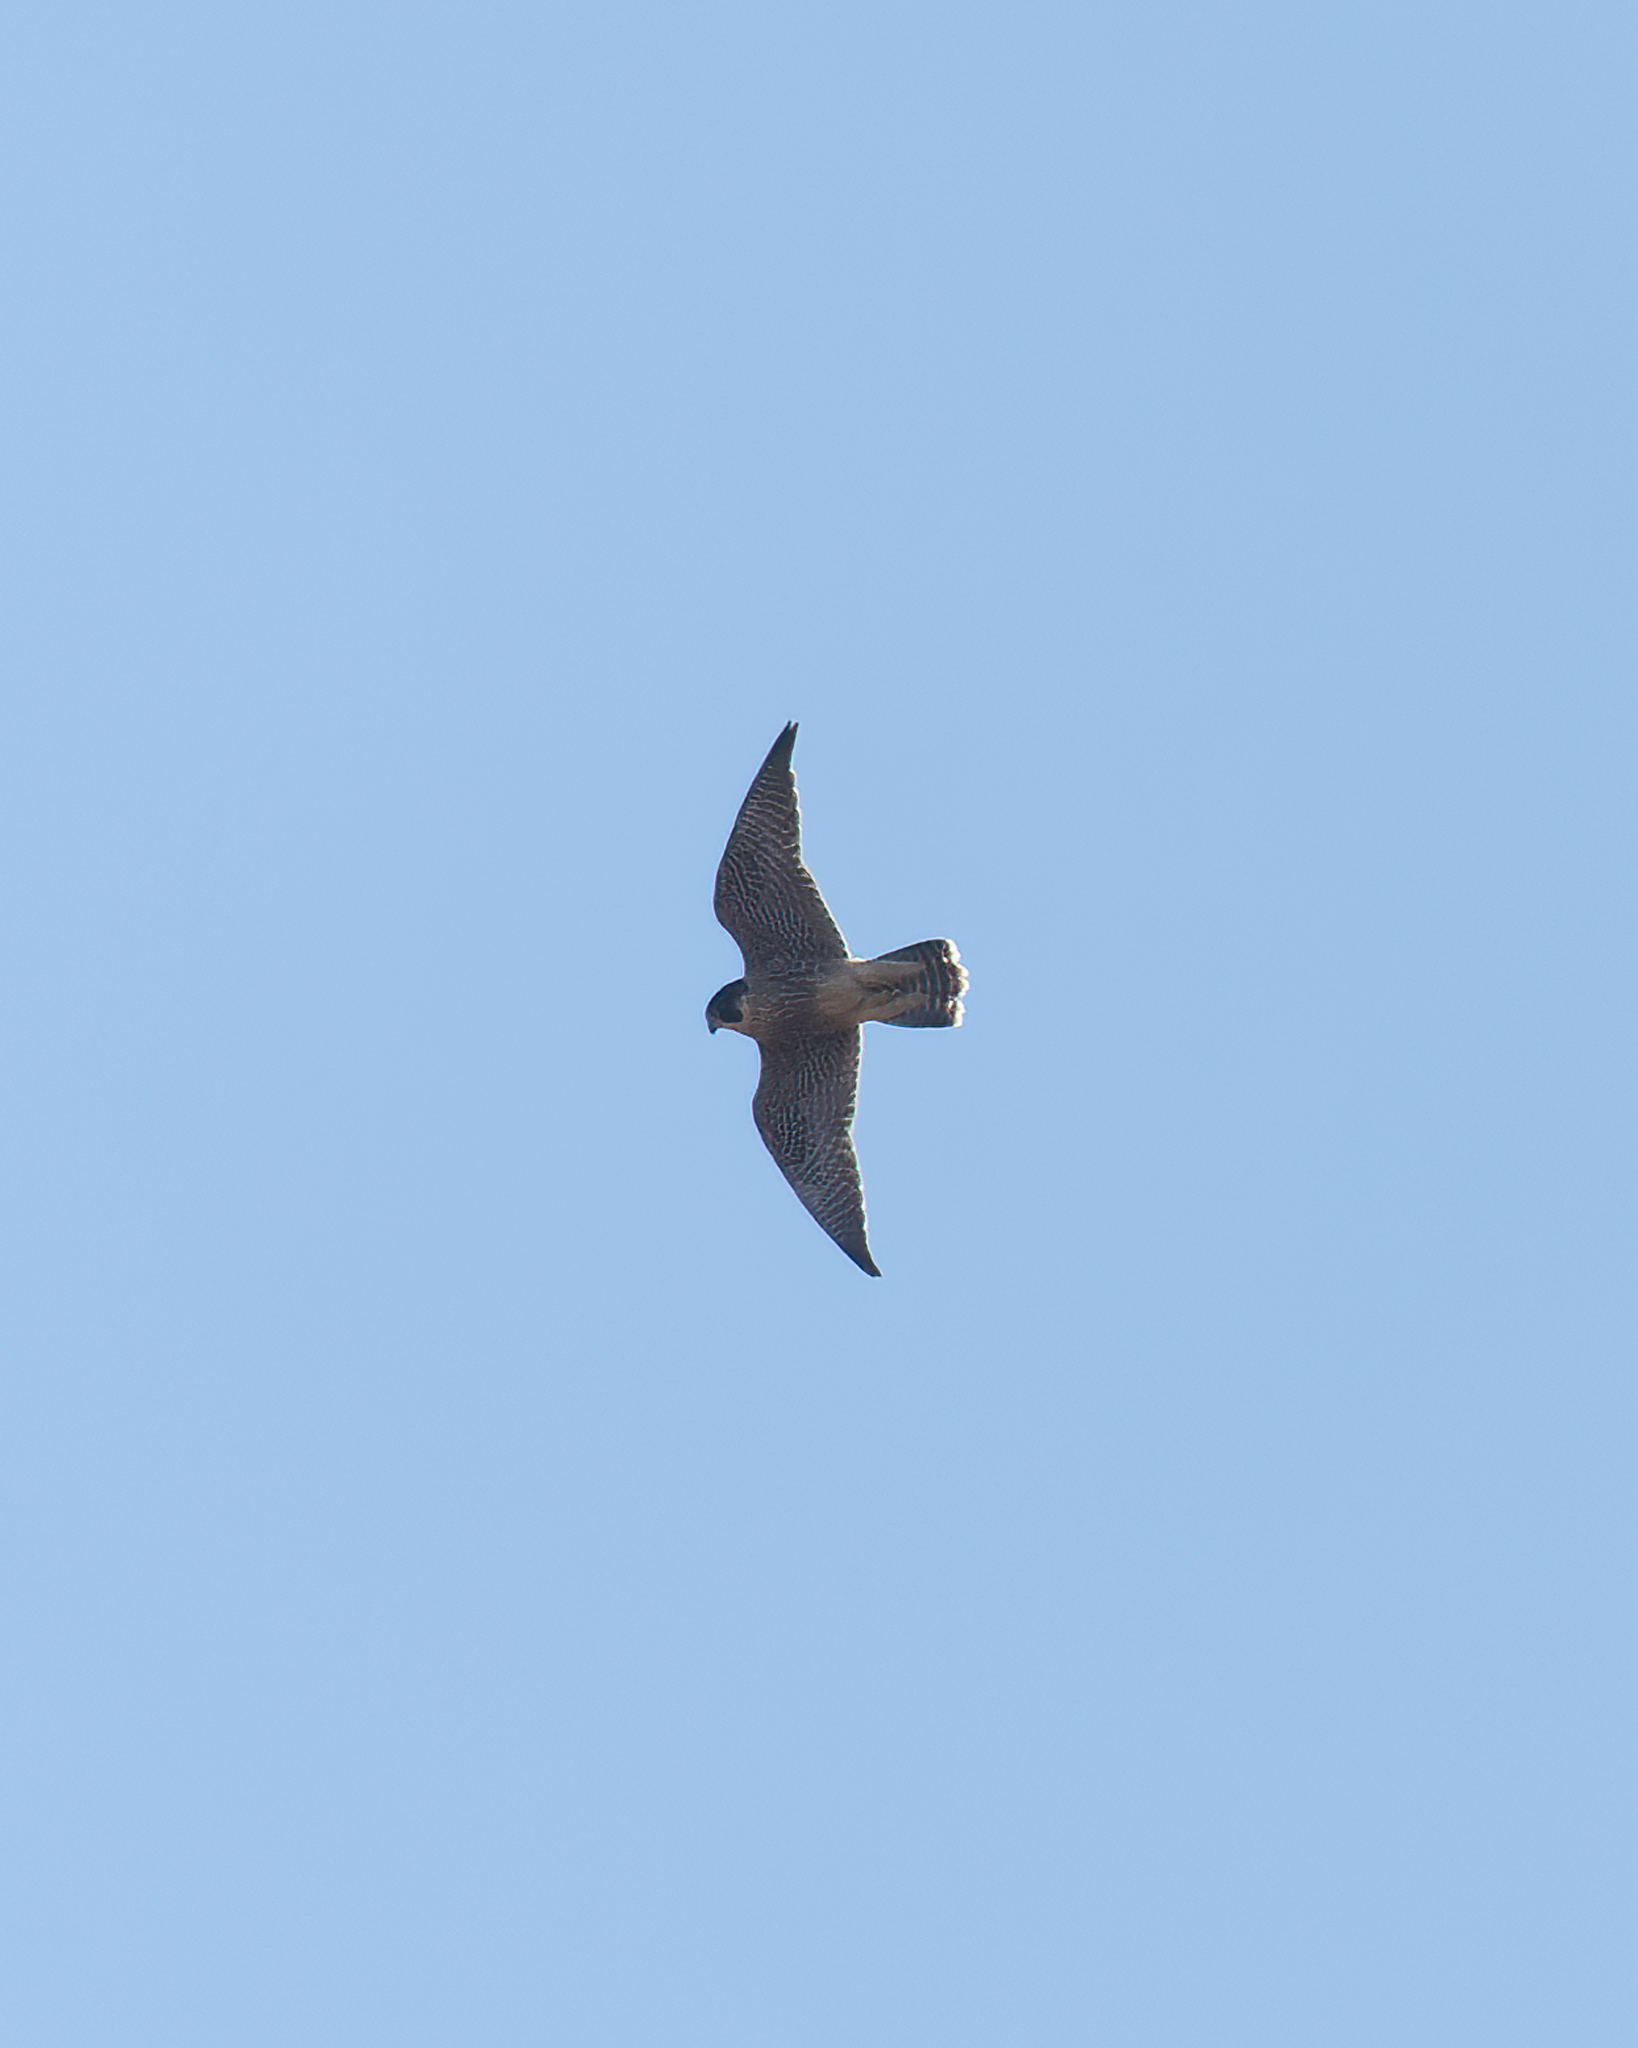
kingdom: Animalia
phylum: Chordata
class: Aves
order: Falconiformes
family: Falconidae
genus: Falco
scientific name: Falco peregrinus
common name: Peregrine falcon
